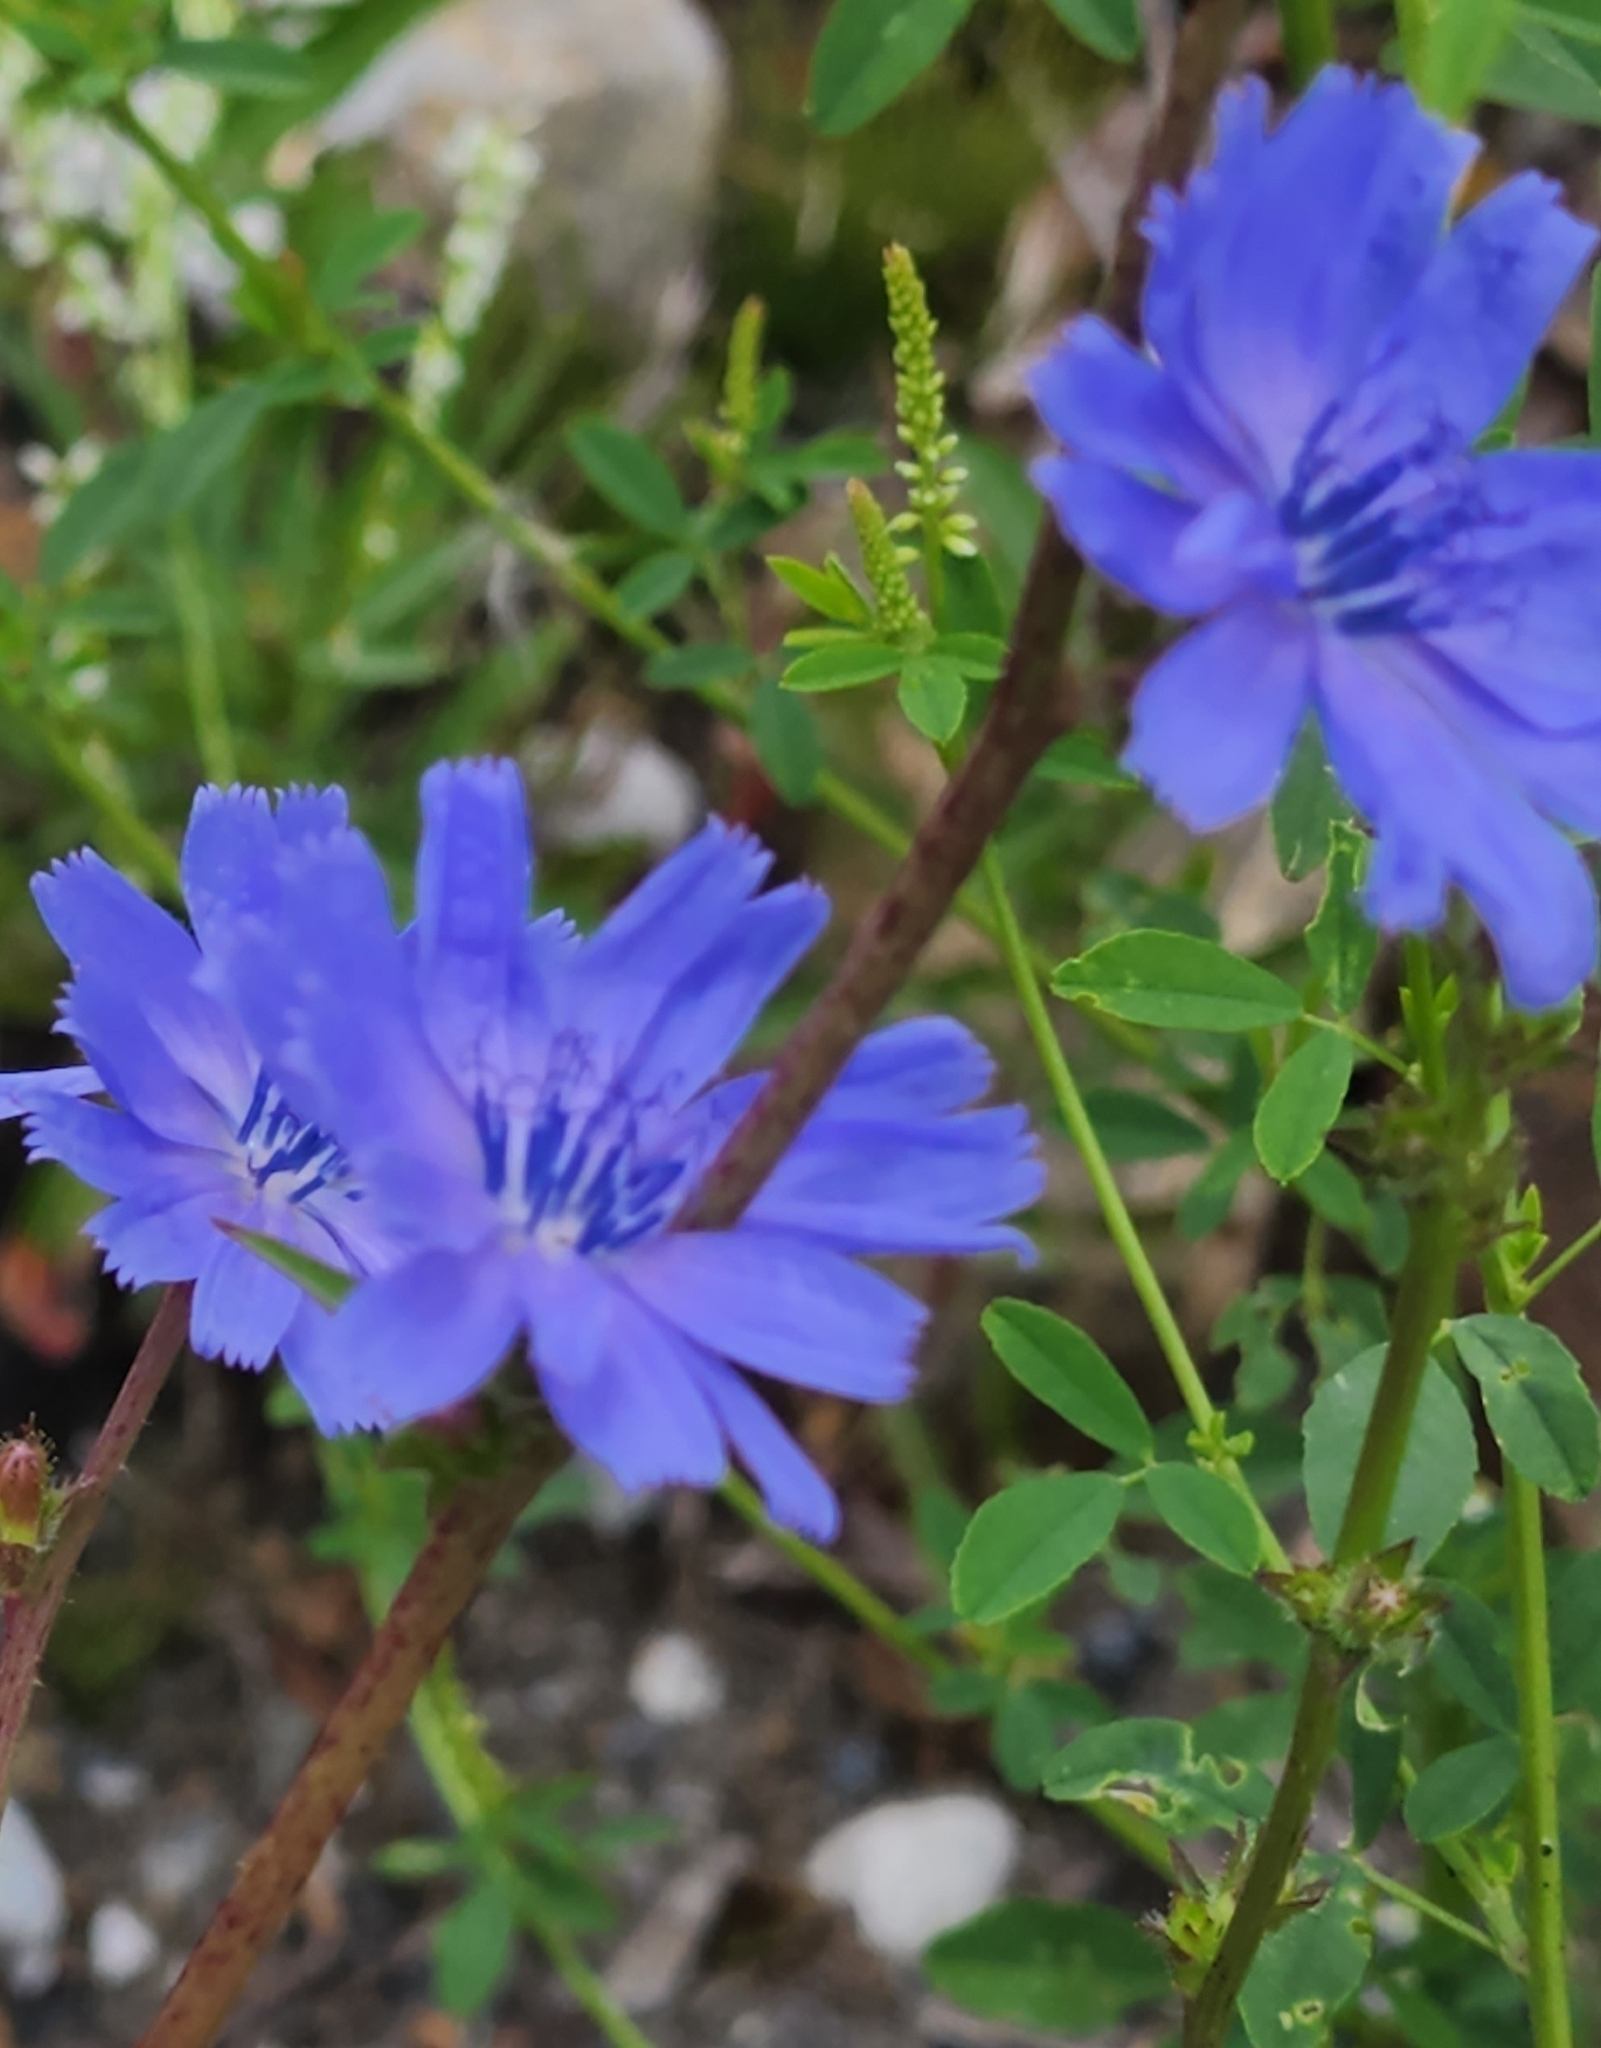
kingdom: Plantae
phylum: Tracheophyta
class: Magnoliopsida
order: Asterales
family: Asteraceae
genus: Cichorium
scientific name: Cichorium intybus
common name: Chicory
